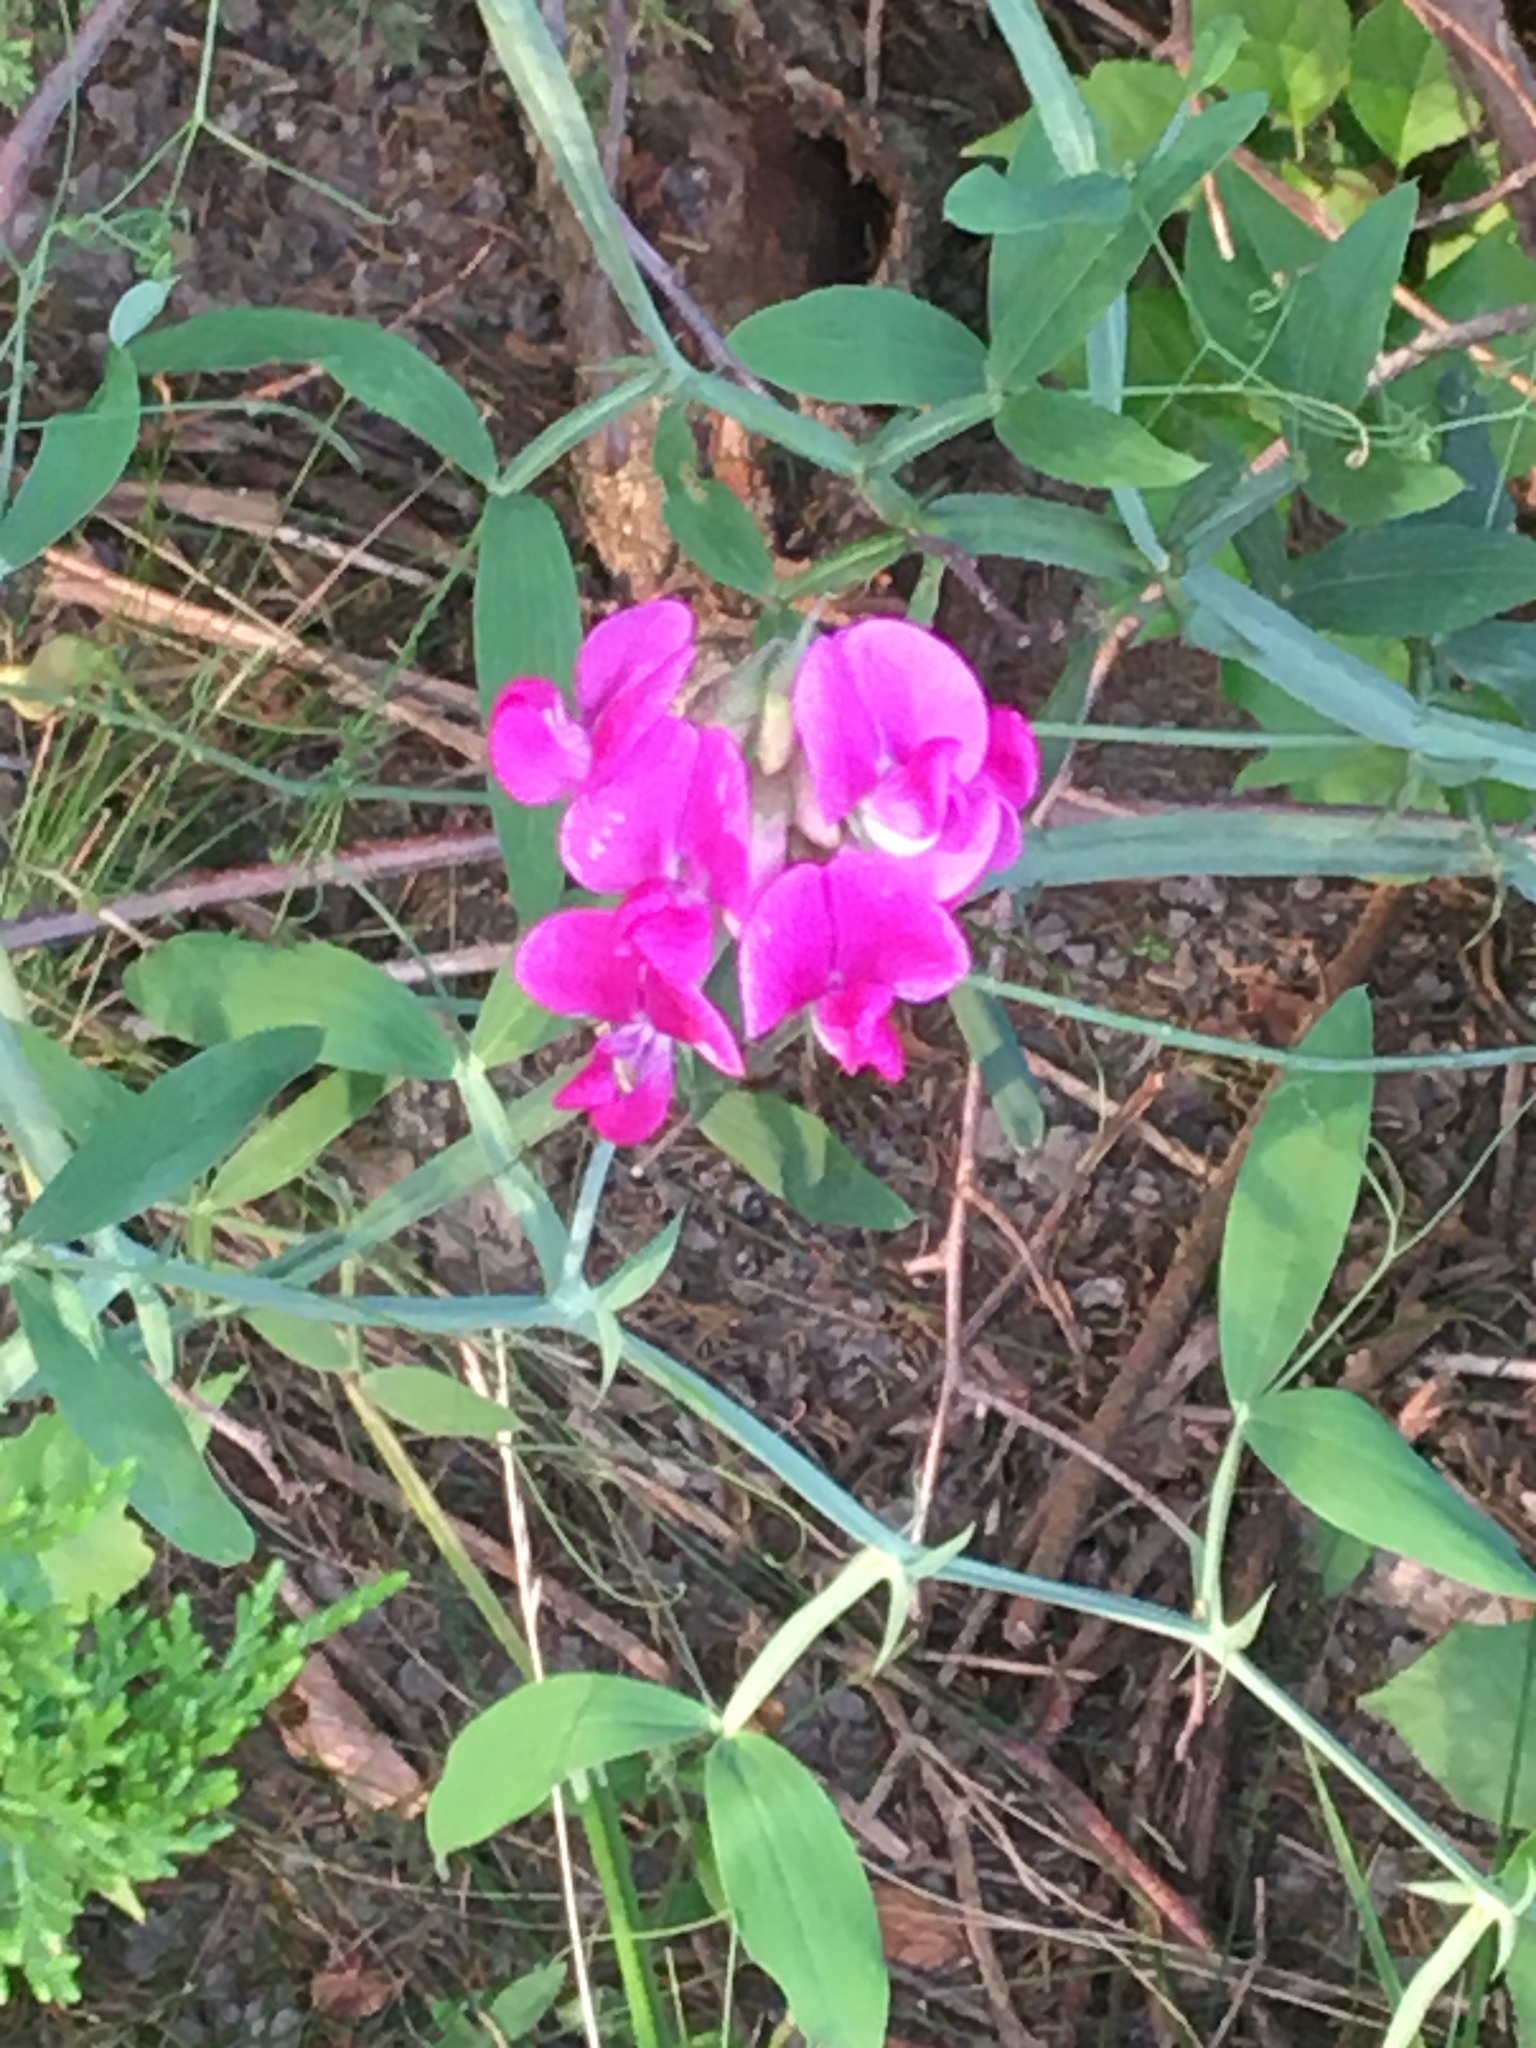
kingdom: Plantae
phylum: Tracheophyta
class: Magnoliopsida
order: Fabales
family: Fabaceae
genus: Lathyrus
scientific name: Lathyrus latifolius
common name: Perennial pea
